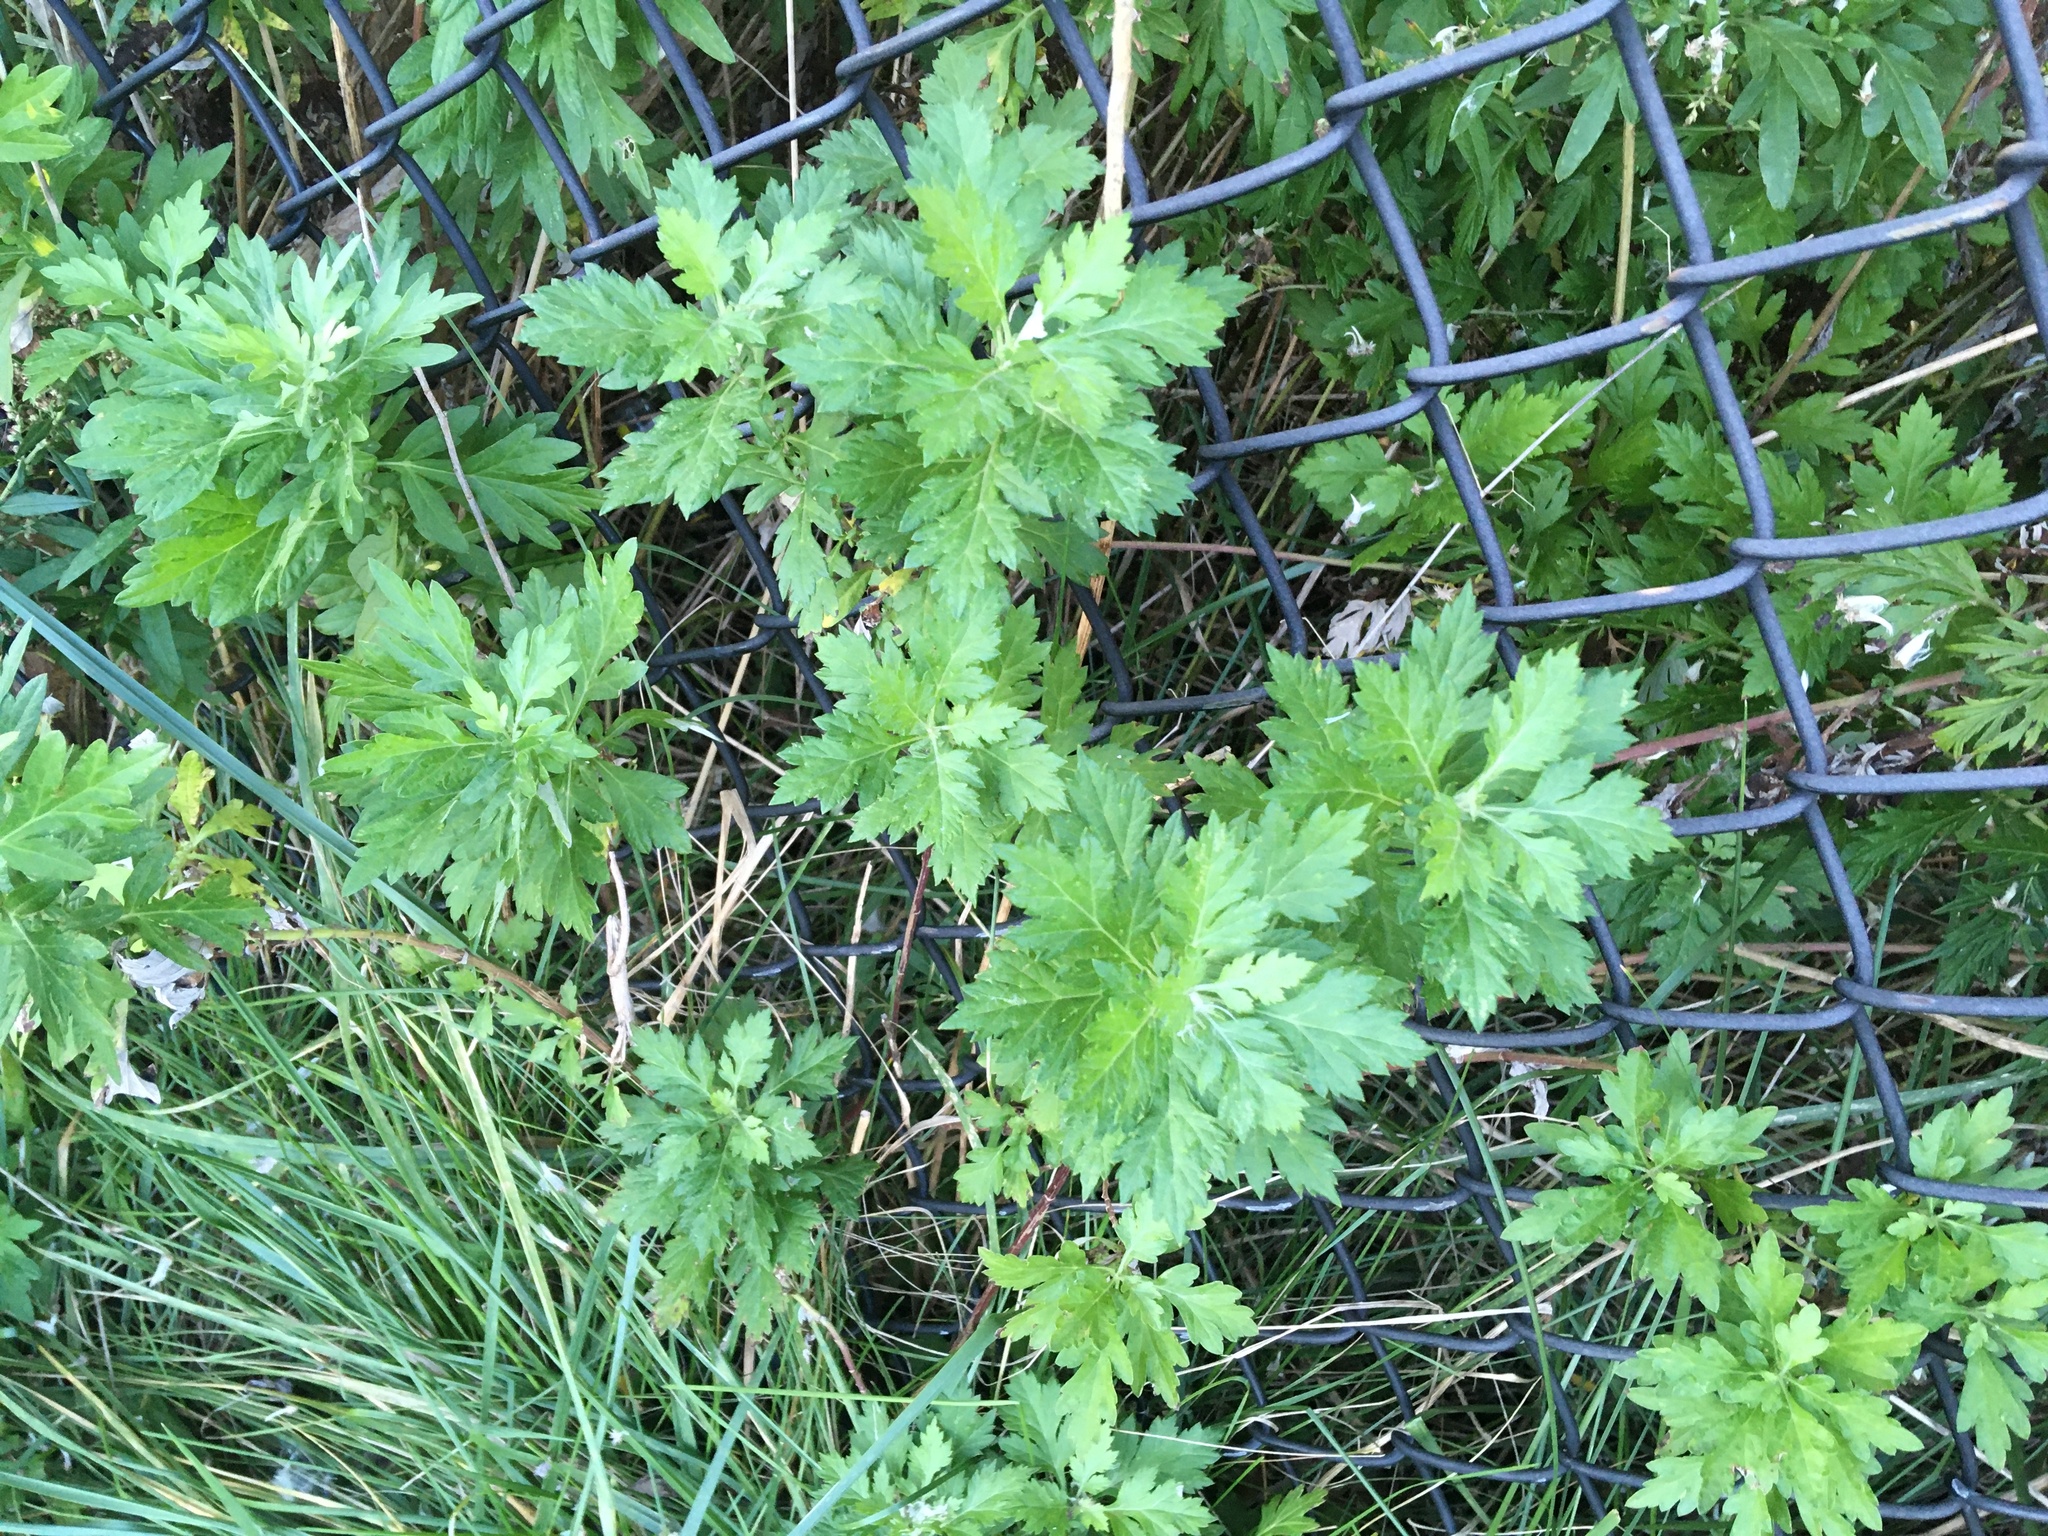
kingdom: Plantae
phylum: Tracheophyta
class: Magnoliopsida
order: Asterales
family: Asteraceae
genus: Artemisia
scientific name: Artemisia vulgaris
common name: Mugwort
